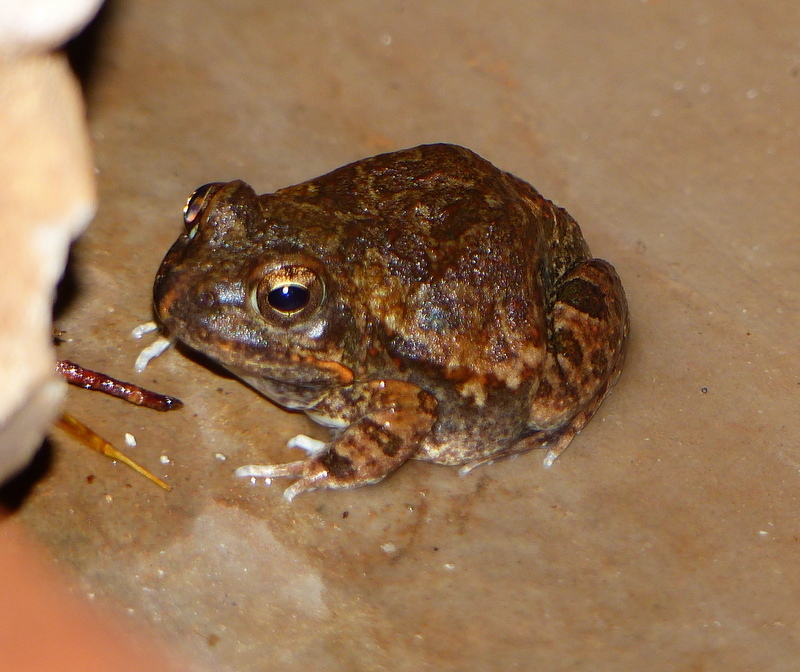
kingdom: Animalia
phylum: Chordata
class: Amphibia
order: Anura
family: Pyxicephalidae
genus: Tomopterna
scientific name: Tomopterna marmorata
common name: Russet-backed sand frog
